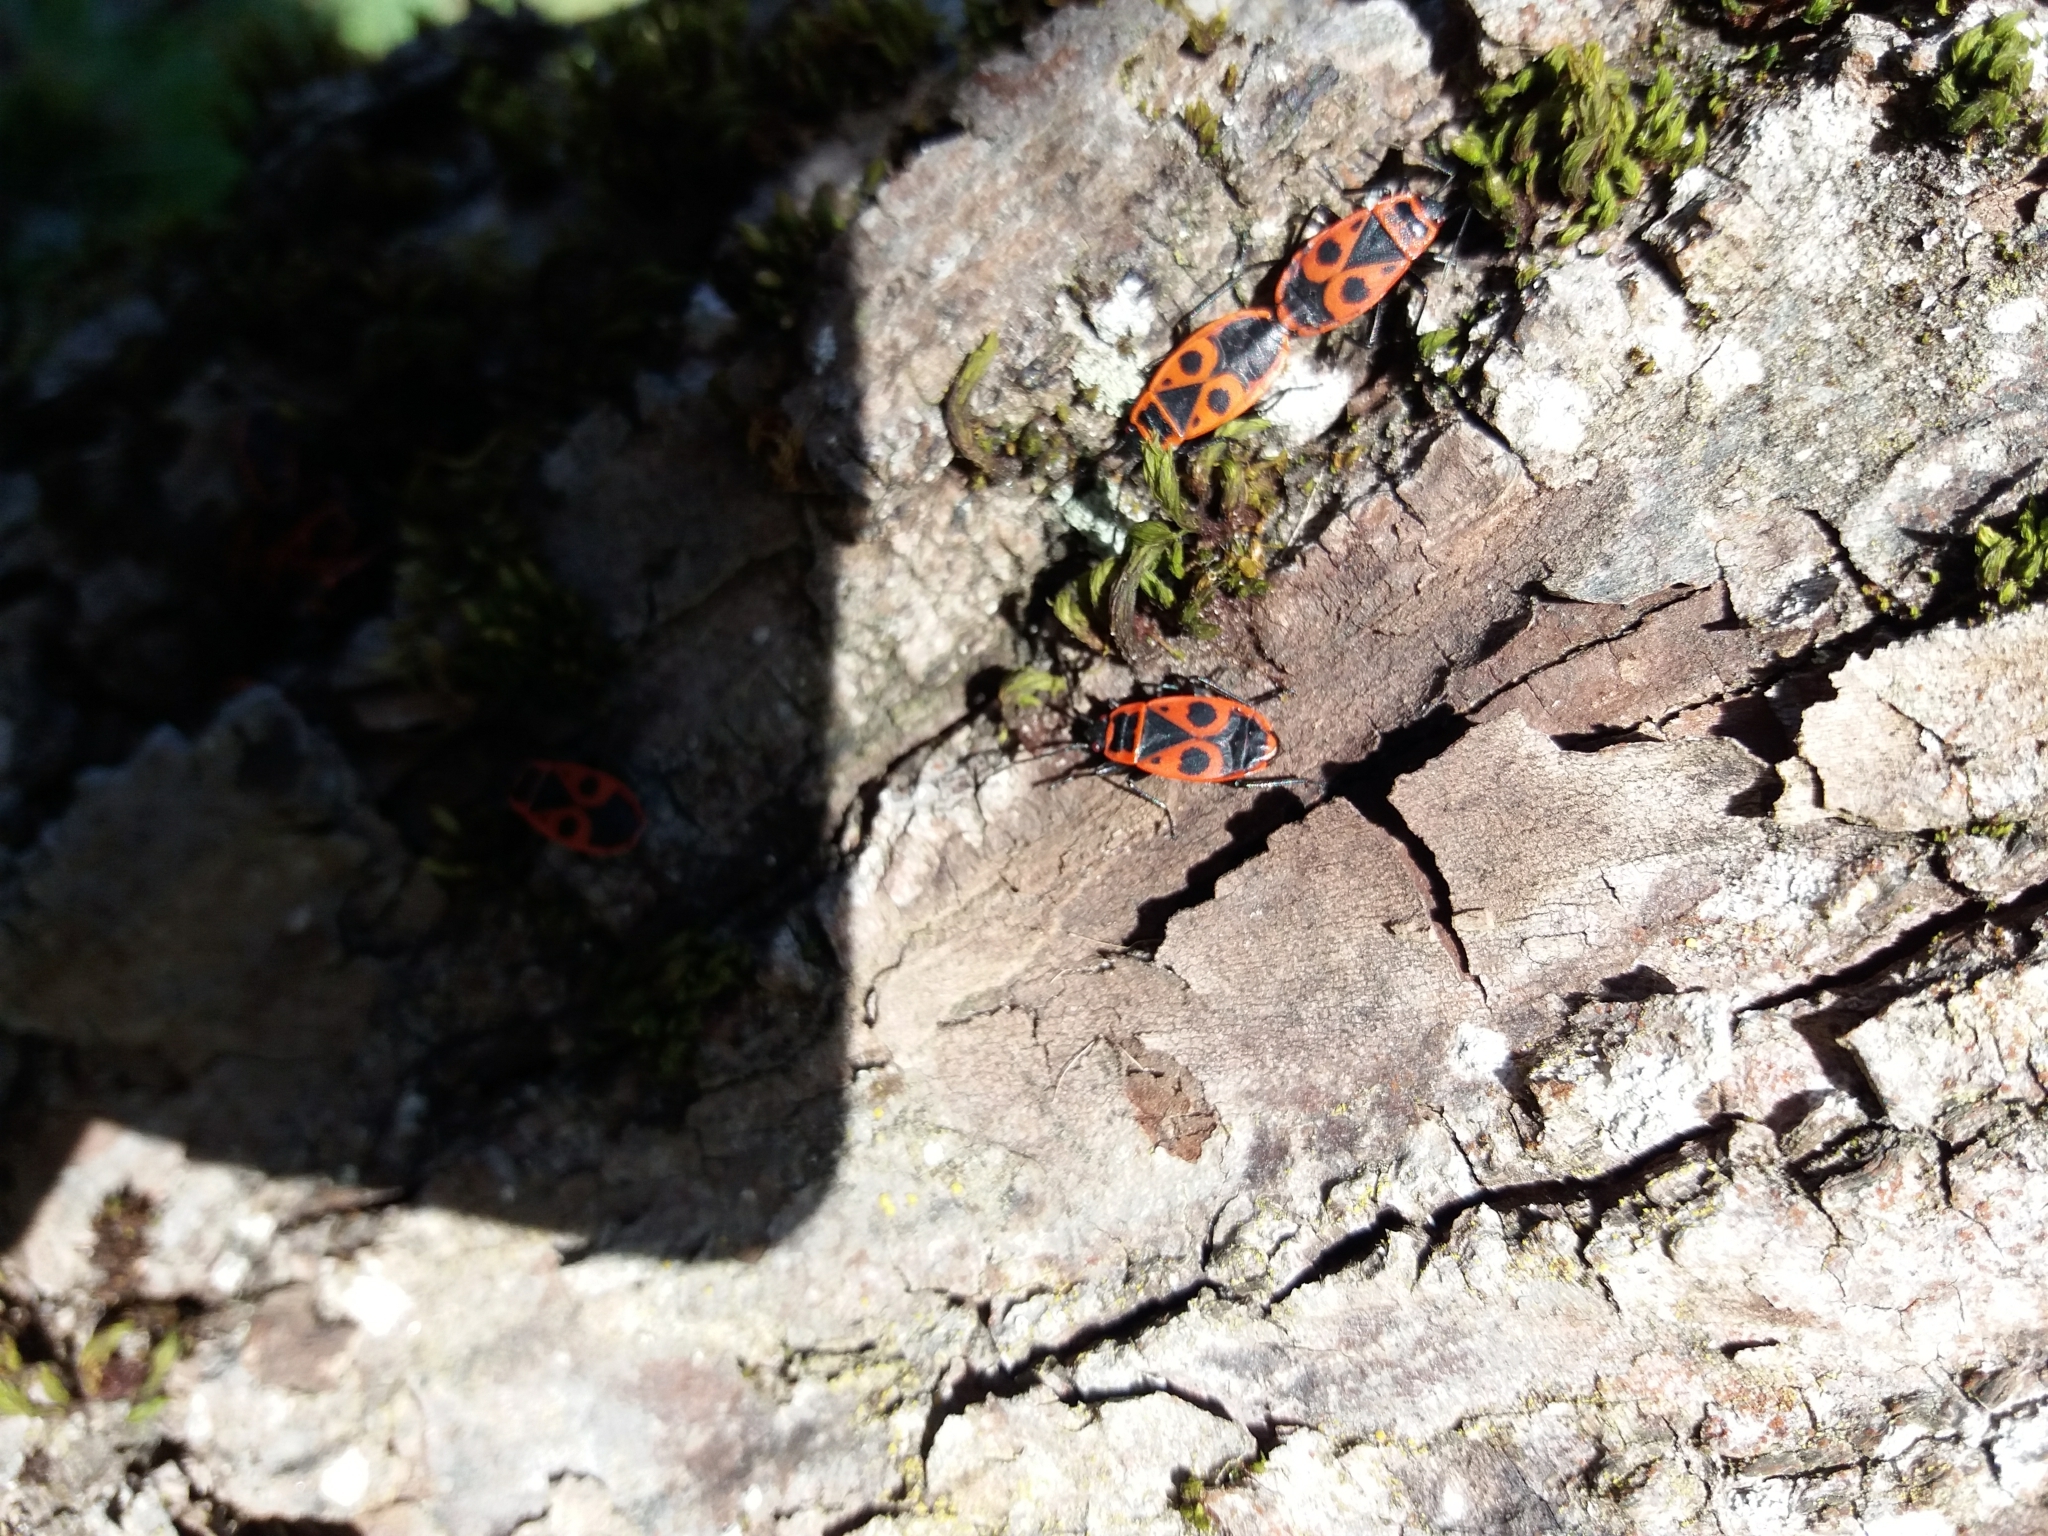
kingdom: Animalia
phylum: Arthropoda
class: Insecta
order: Hemiptera
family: Pyrrhocoridae
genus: Pyrrhocoris
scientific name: Pyrrhocoris apterus
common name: Firebug
